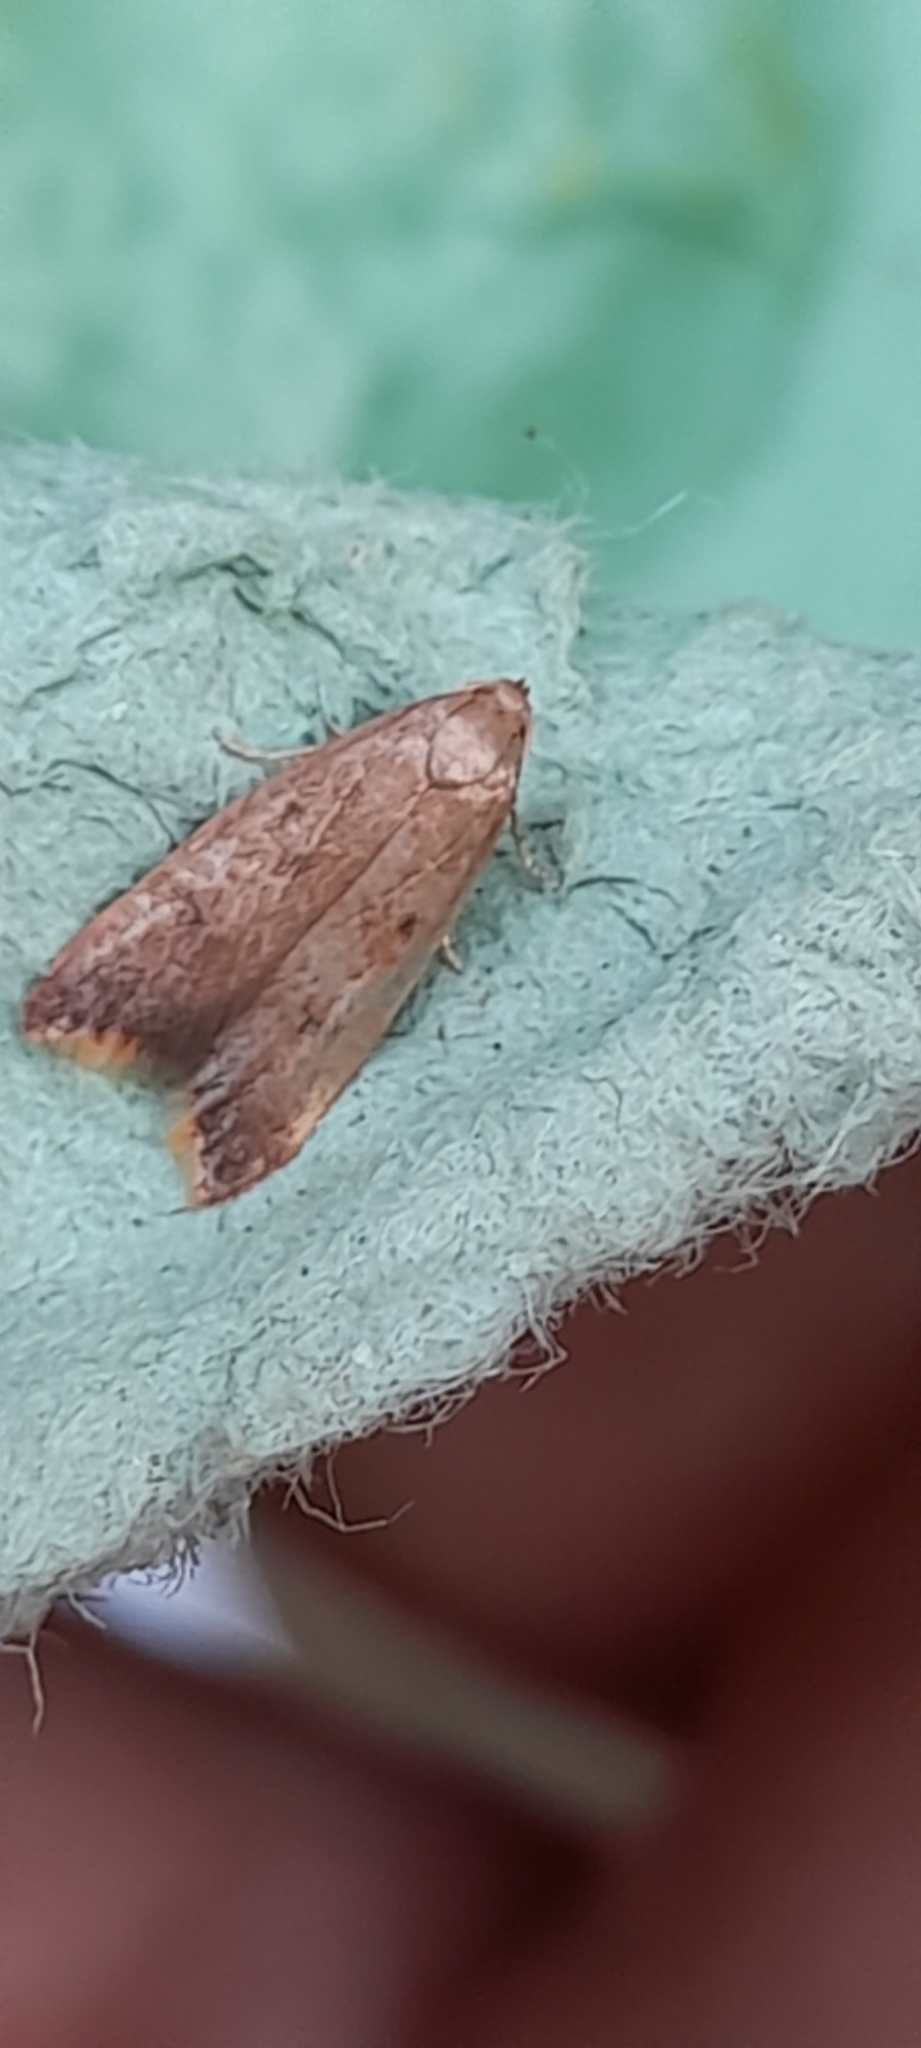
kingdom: Animalia
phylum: Arthropoda
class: Insecta
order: Lepidoptera
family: Oecophoridae
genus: Tachystola
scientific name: Tachystola acroxantha
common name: Ruddy streak
